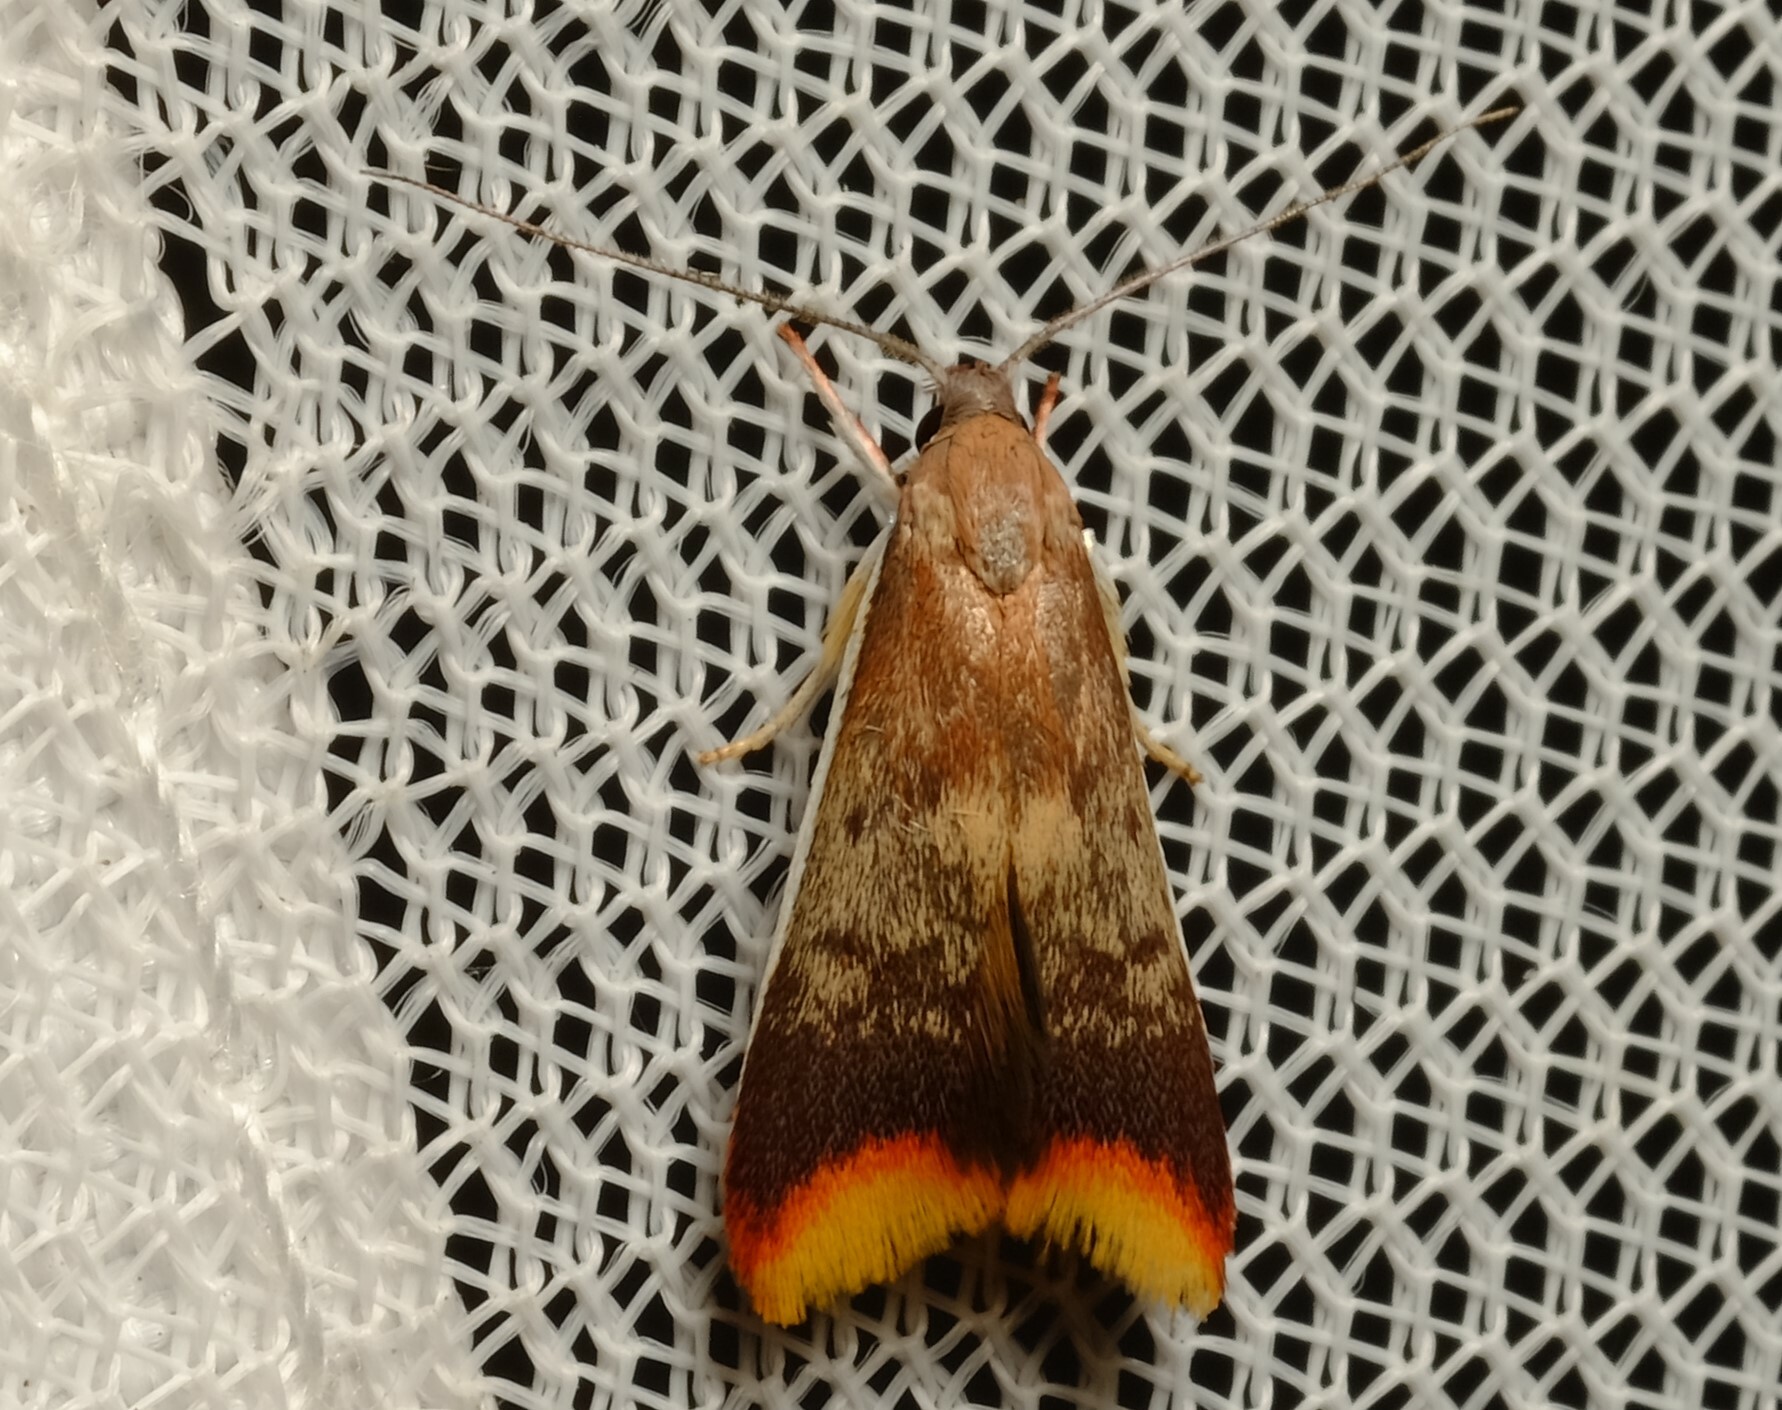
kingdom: Animalia
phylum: Arthropoda
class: Insecta
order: Lepidoptera
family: Oecophoridae
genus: Hemibela
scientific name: Hemibela callista
